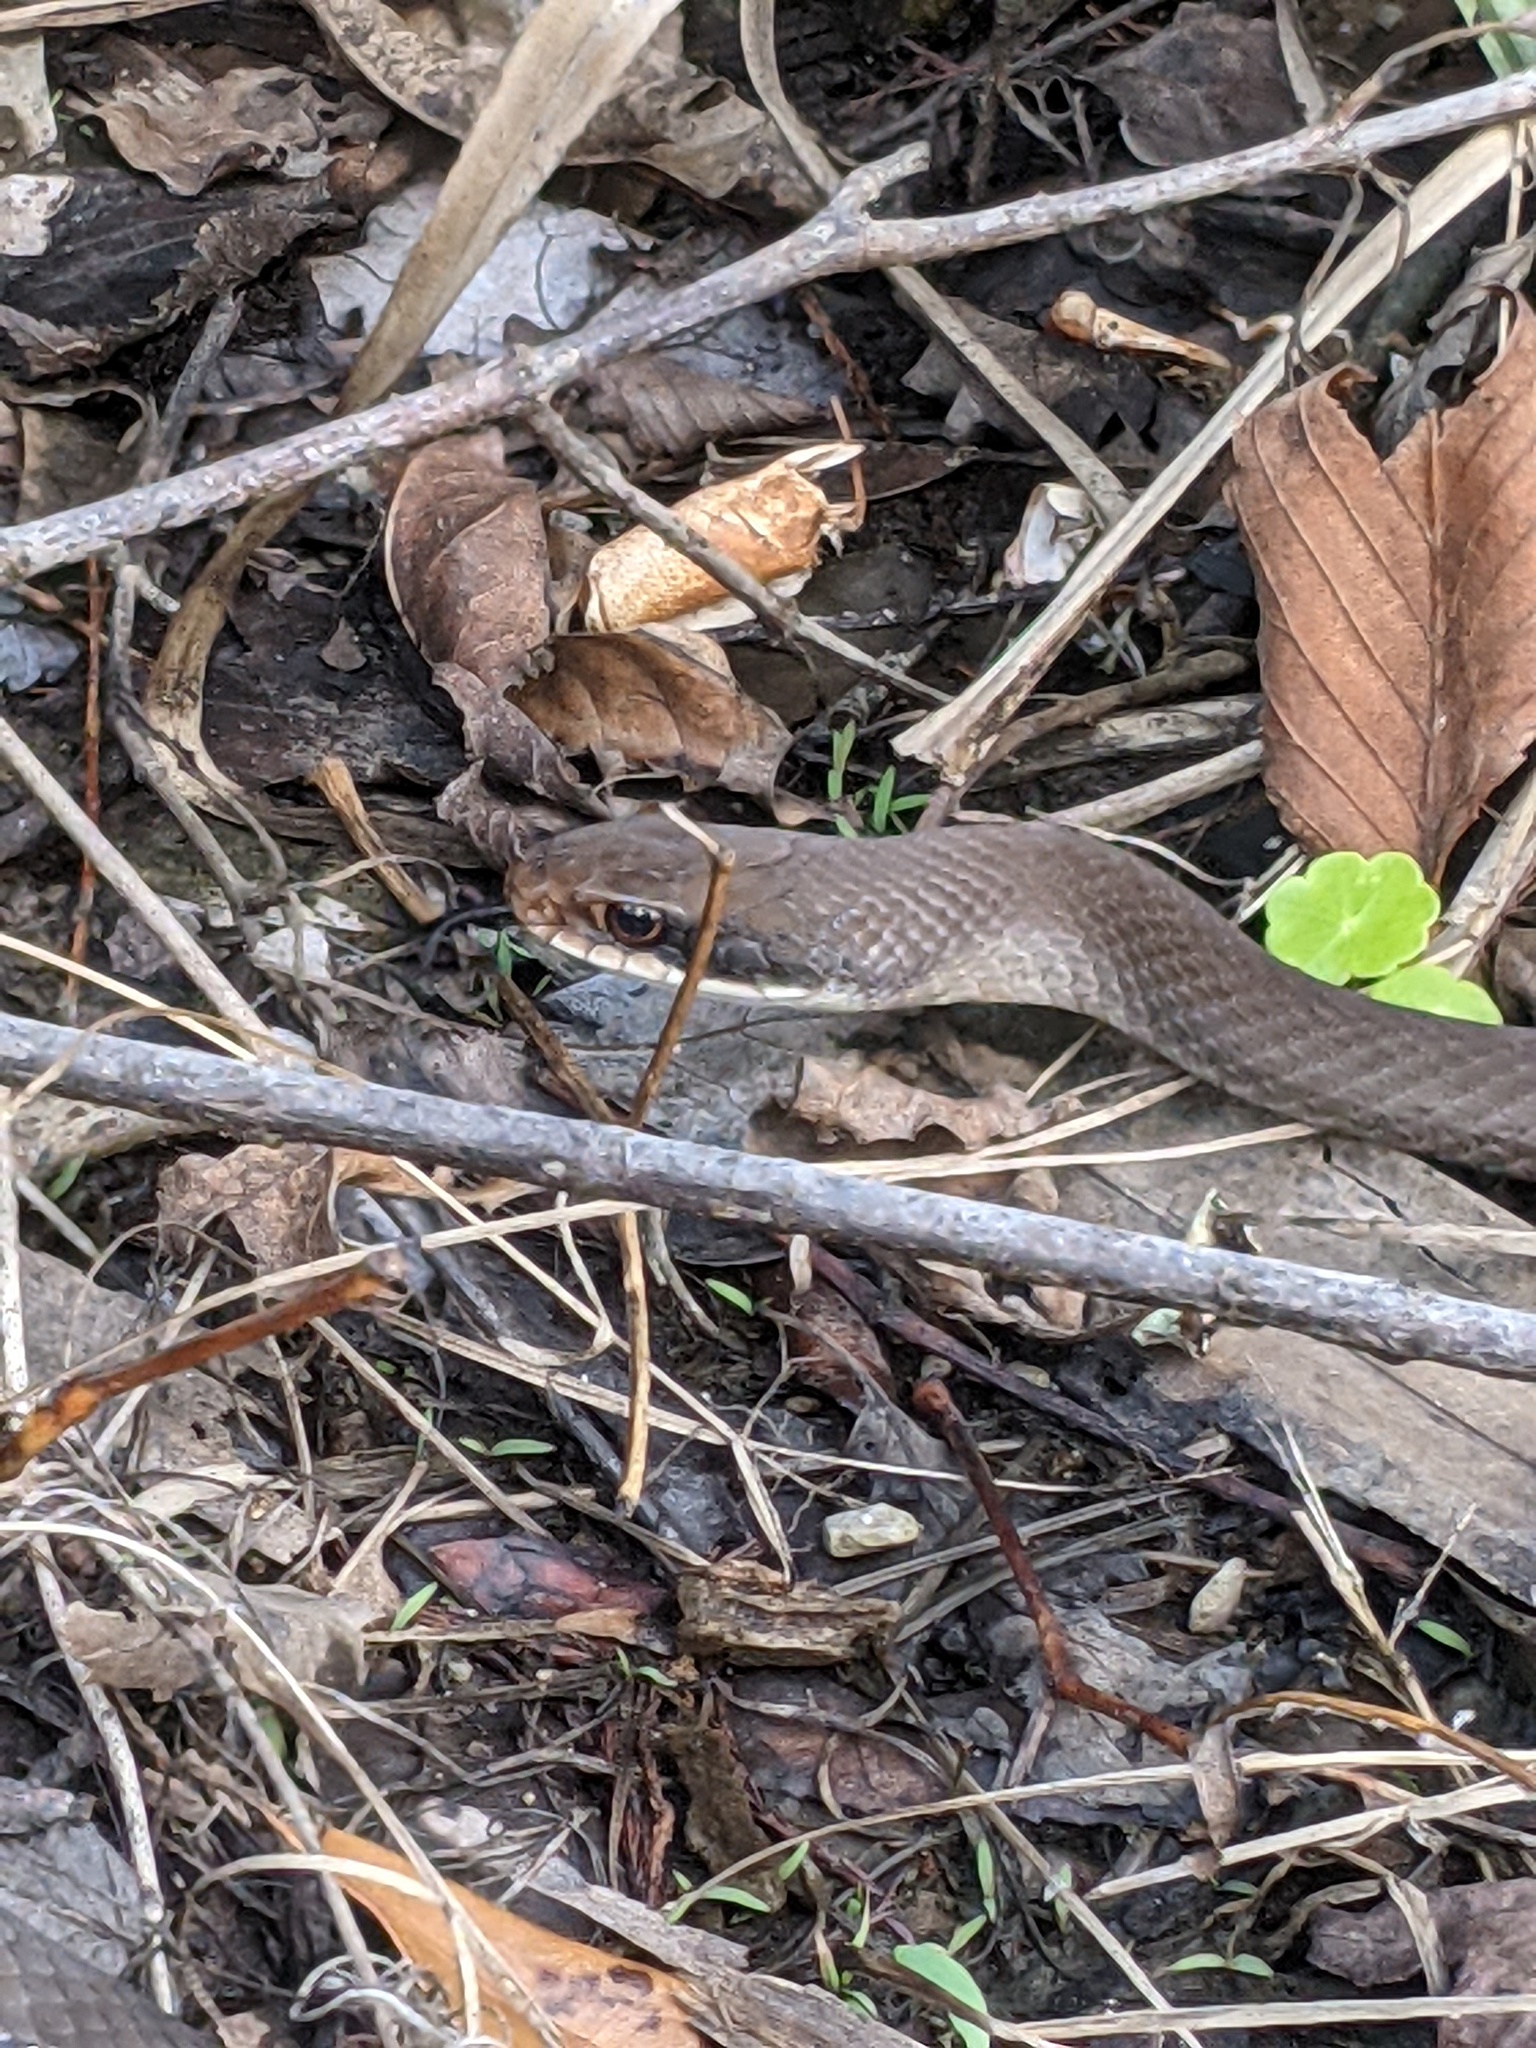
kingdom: Animalia
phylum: Chordata
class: Squamata
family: Colubridae
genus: Coluber
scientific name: Coluber constrictor
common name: Eastern racer
